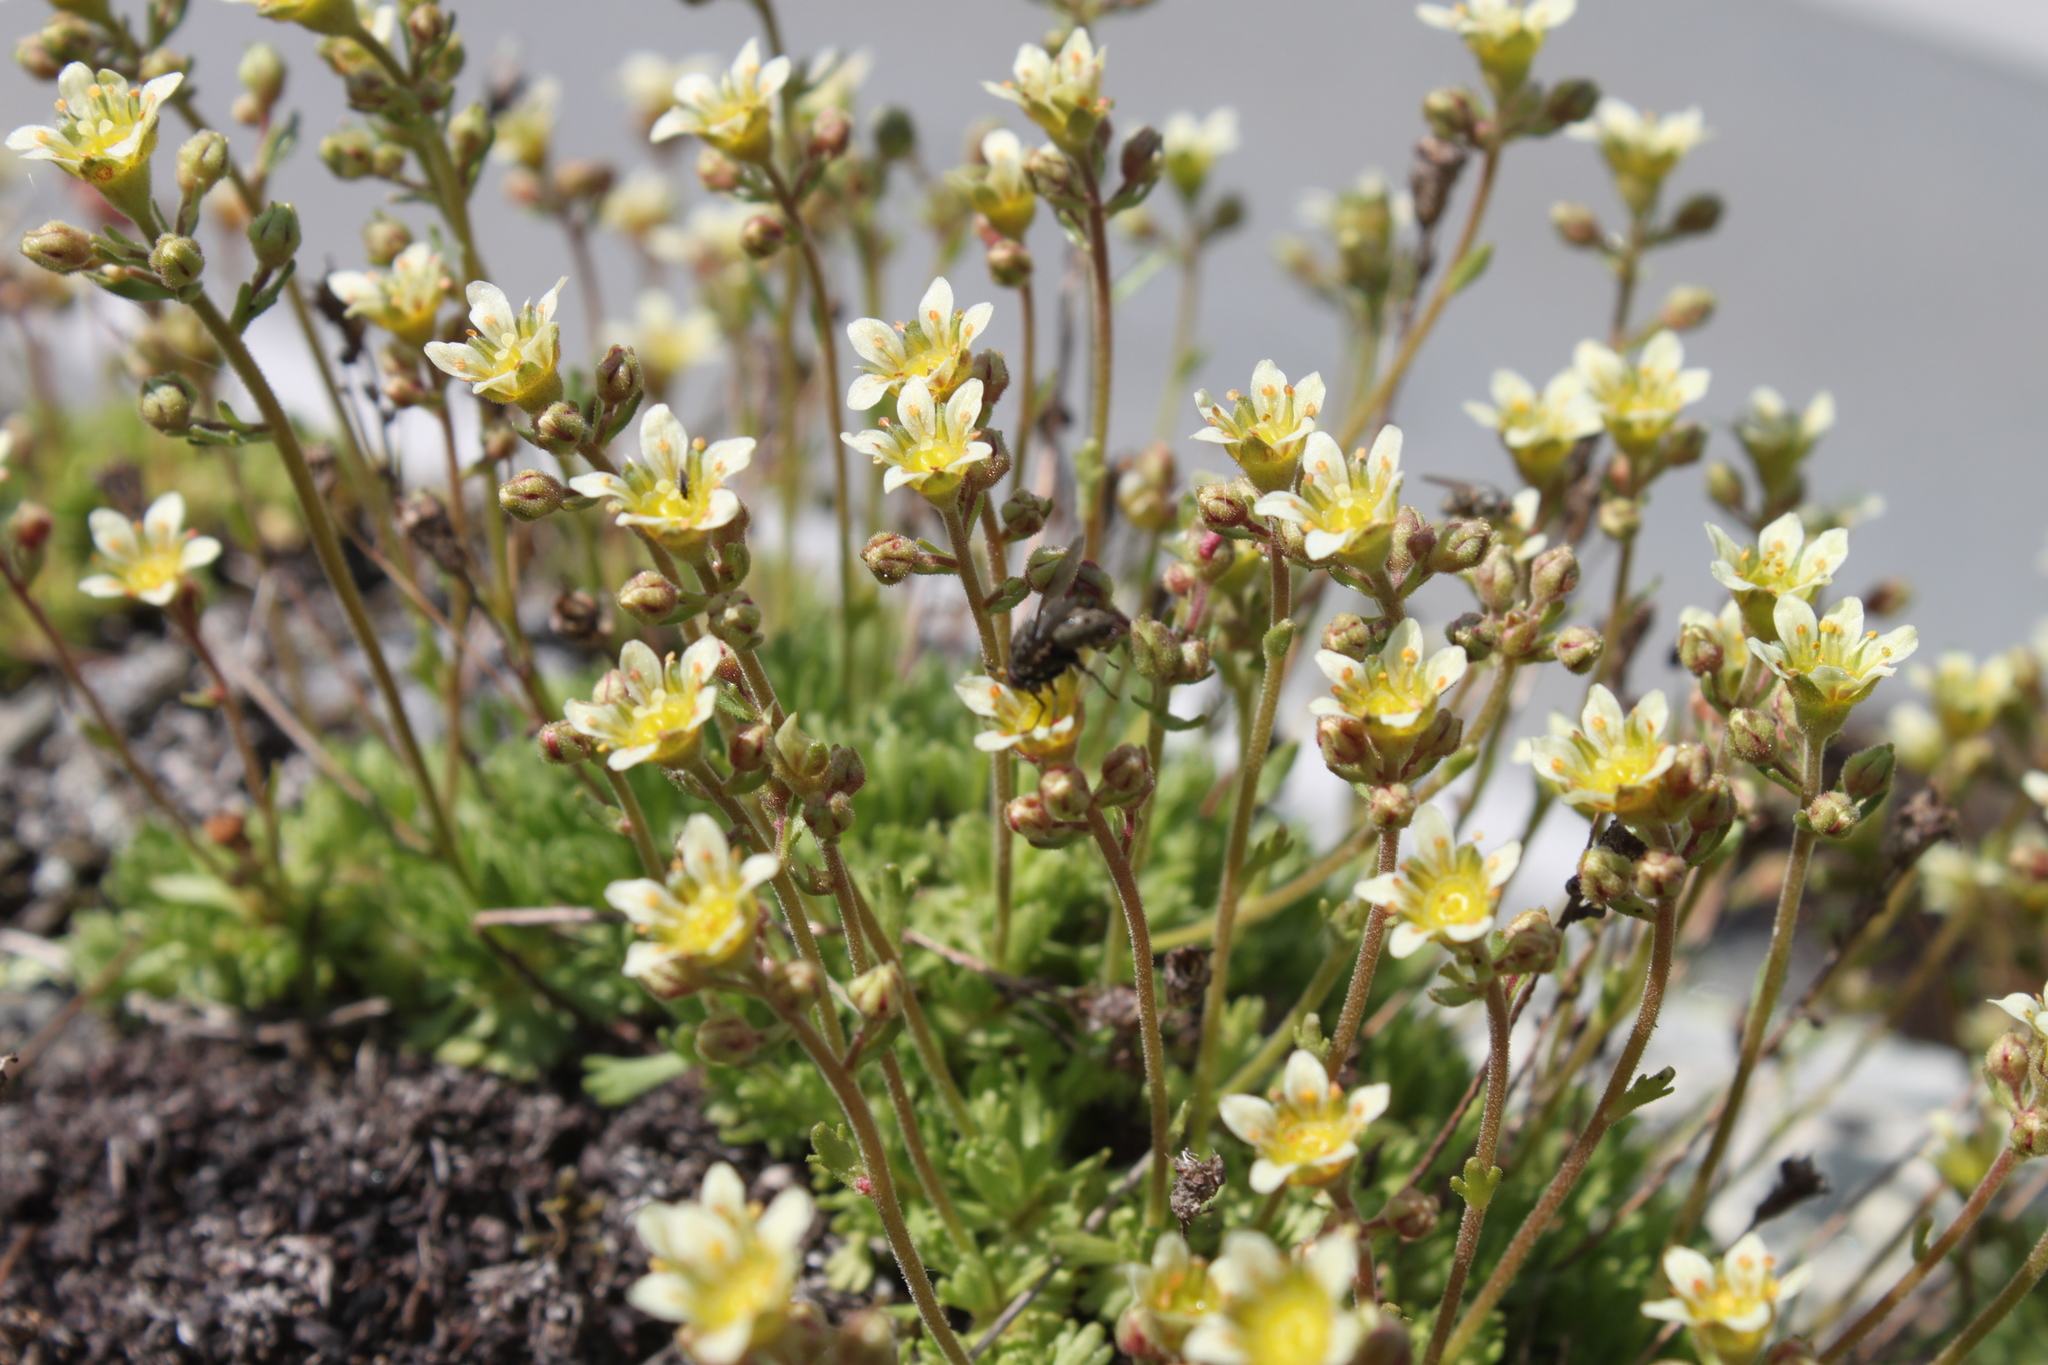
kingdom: Plantae
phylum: Tracheophyta
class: Magnoliopsida
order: Saxifragales
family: Saxifragaceae
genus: Saxifraga
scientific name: Saxifraga exarata
